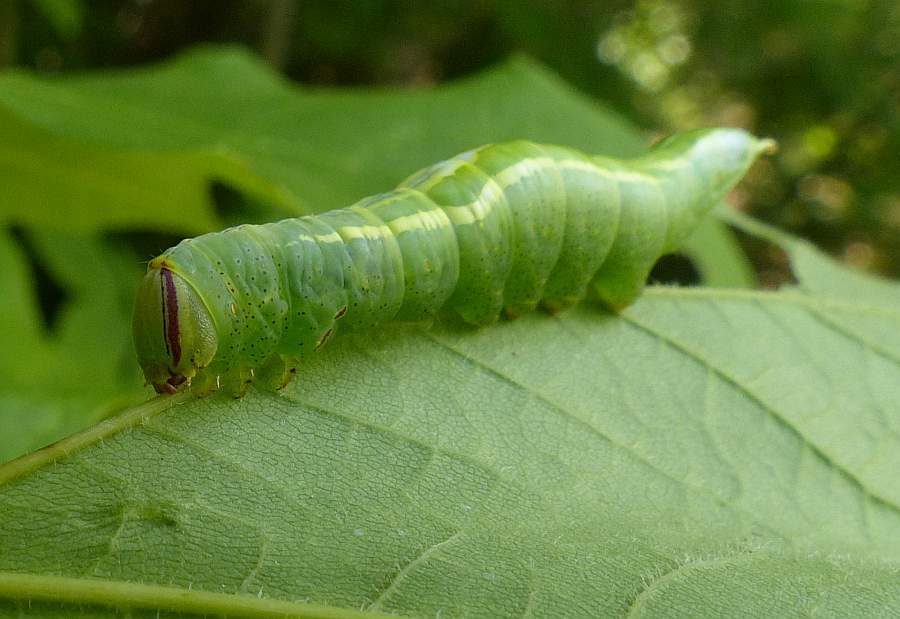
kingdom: Animalia
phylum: Arthropoda
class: Insecta
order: Lepidoptera
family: Notodontidae
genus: Disphragis
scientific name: Disphragis Cecrita guttivitta
